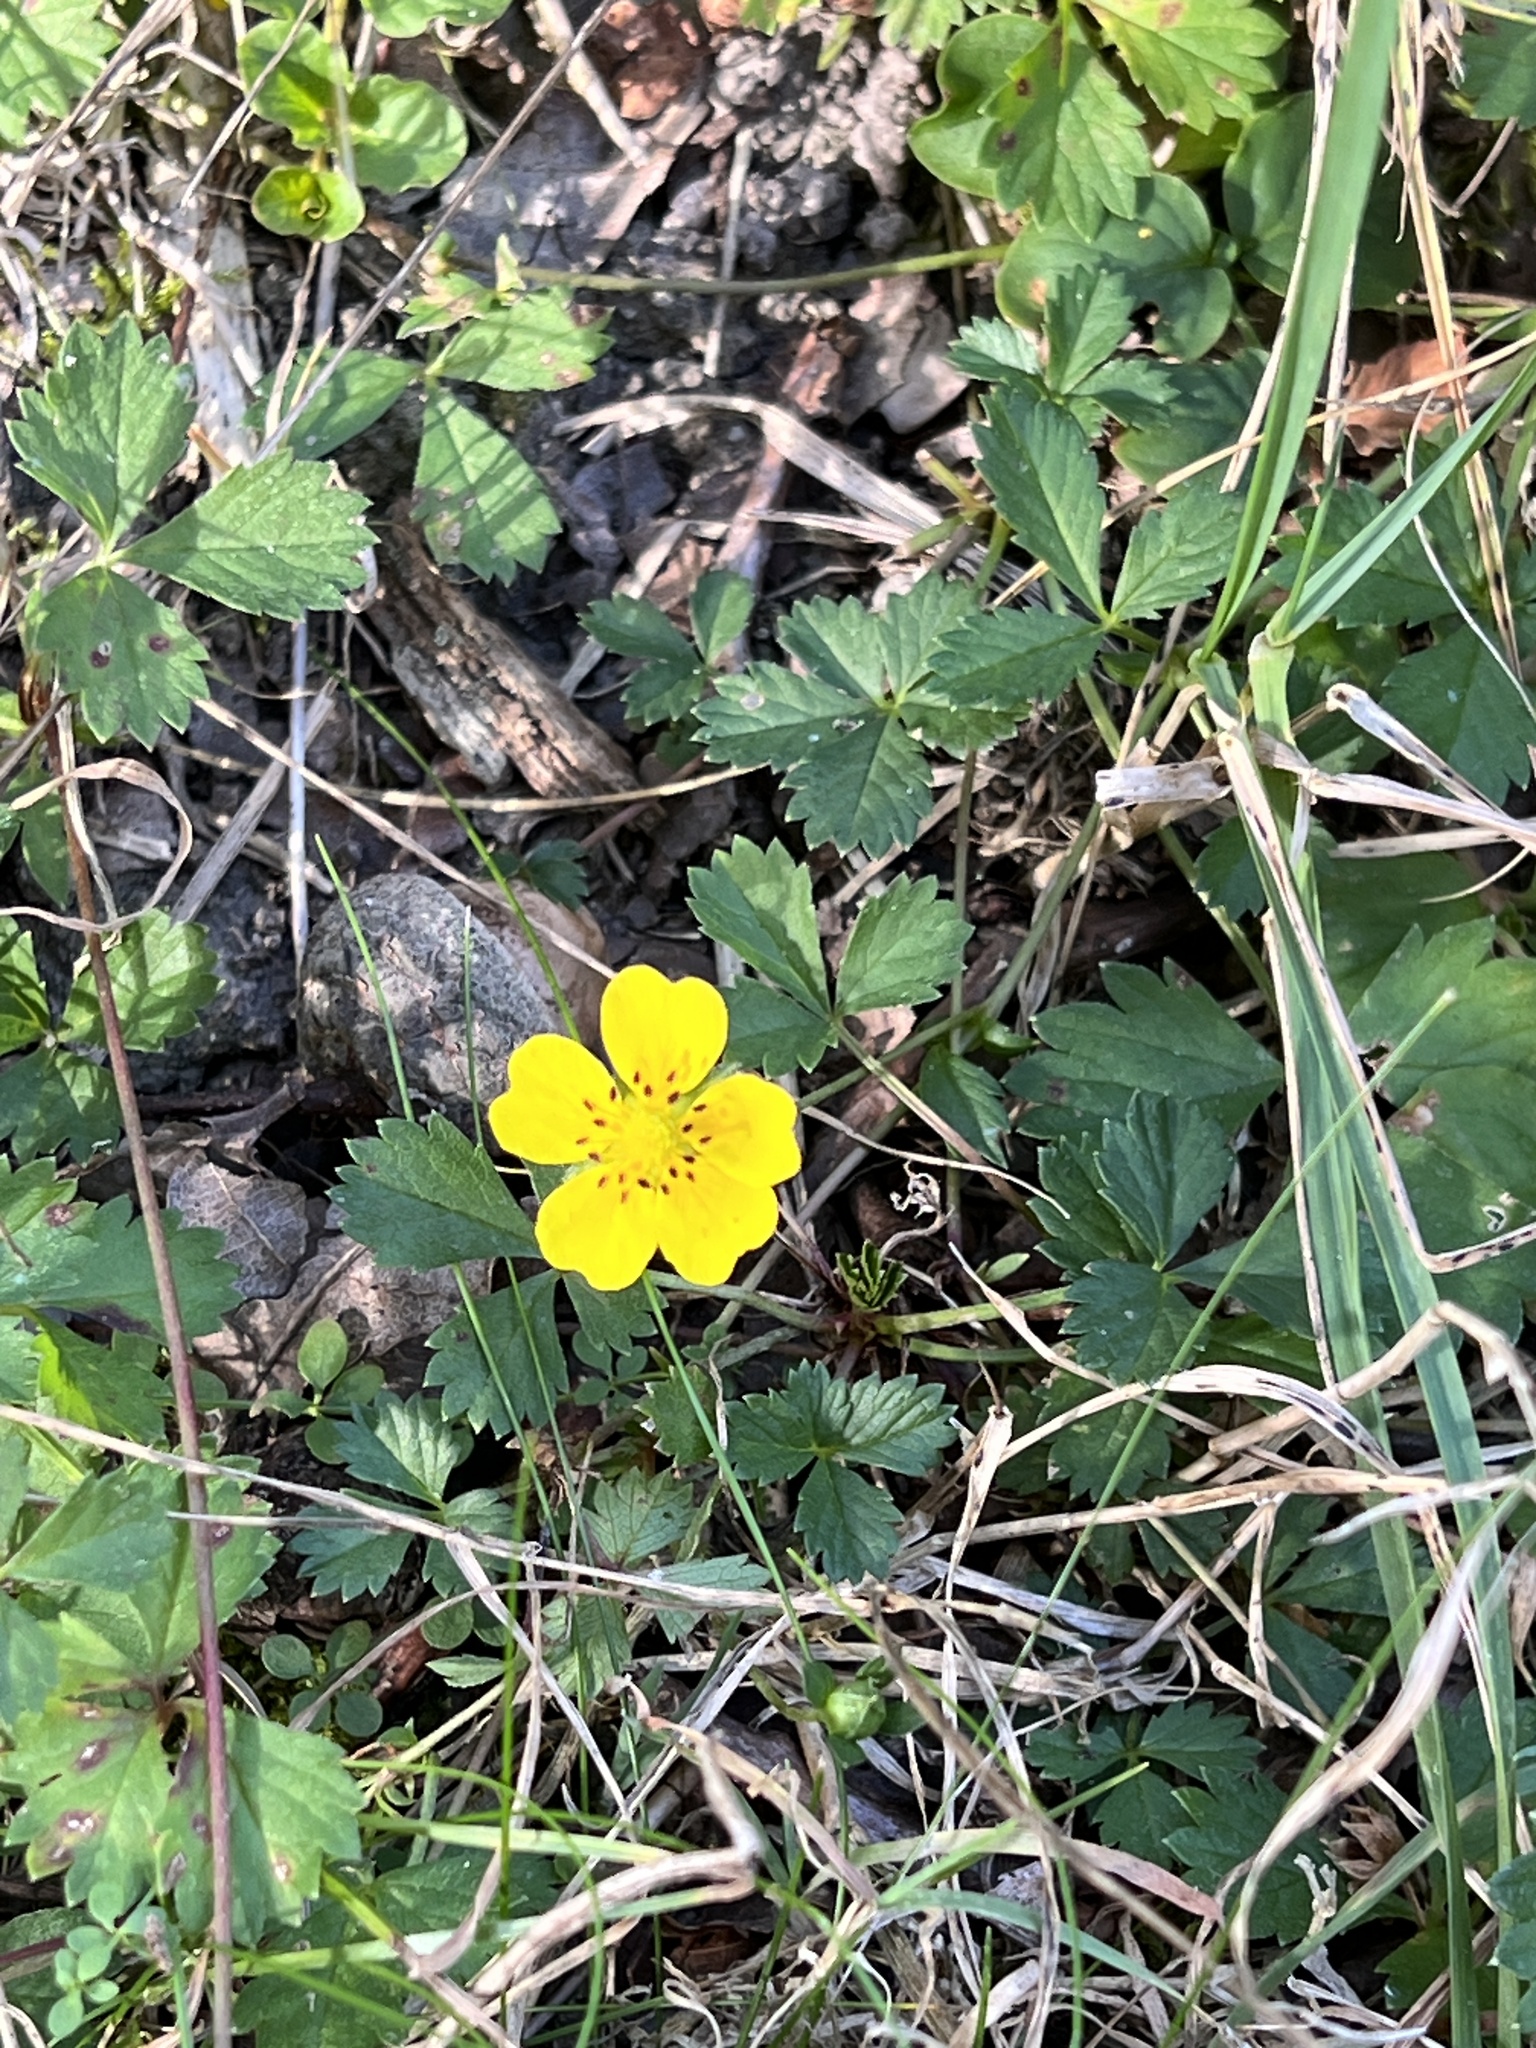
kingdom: Plantae
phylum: Tracheophyta
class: Magnoliopsida
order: Rosales
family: Rosaceae
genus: Potentilla
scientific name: Potentilla reptans
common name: Creeping cinquefoil
